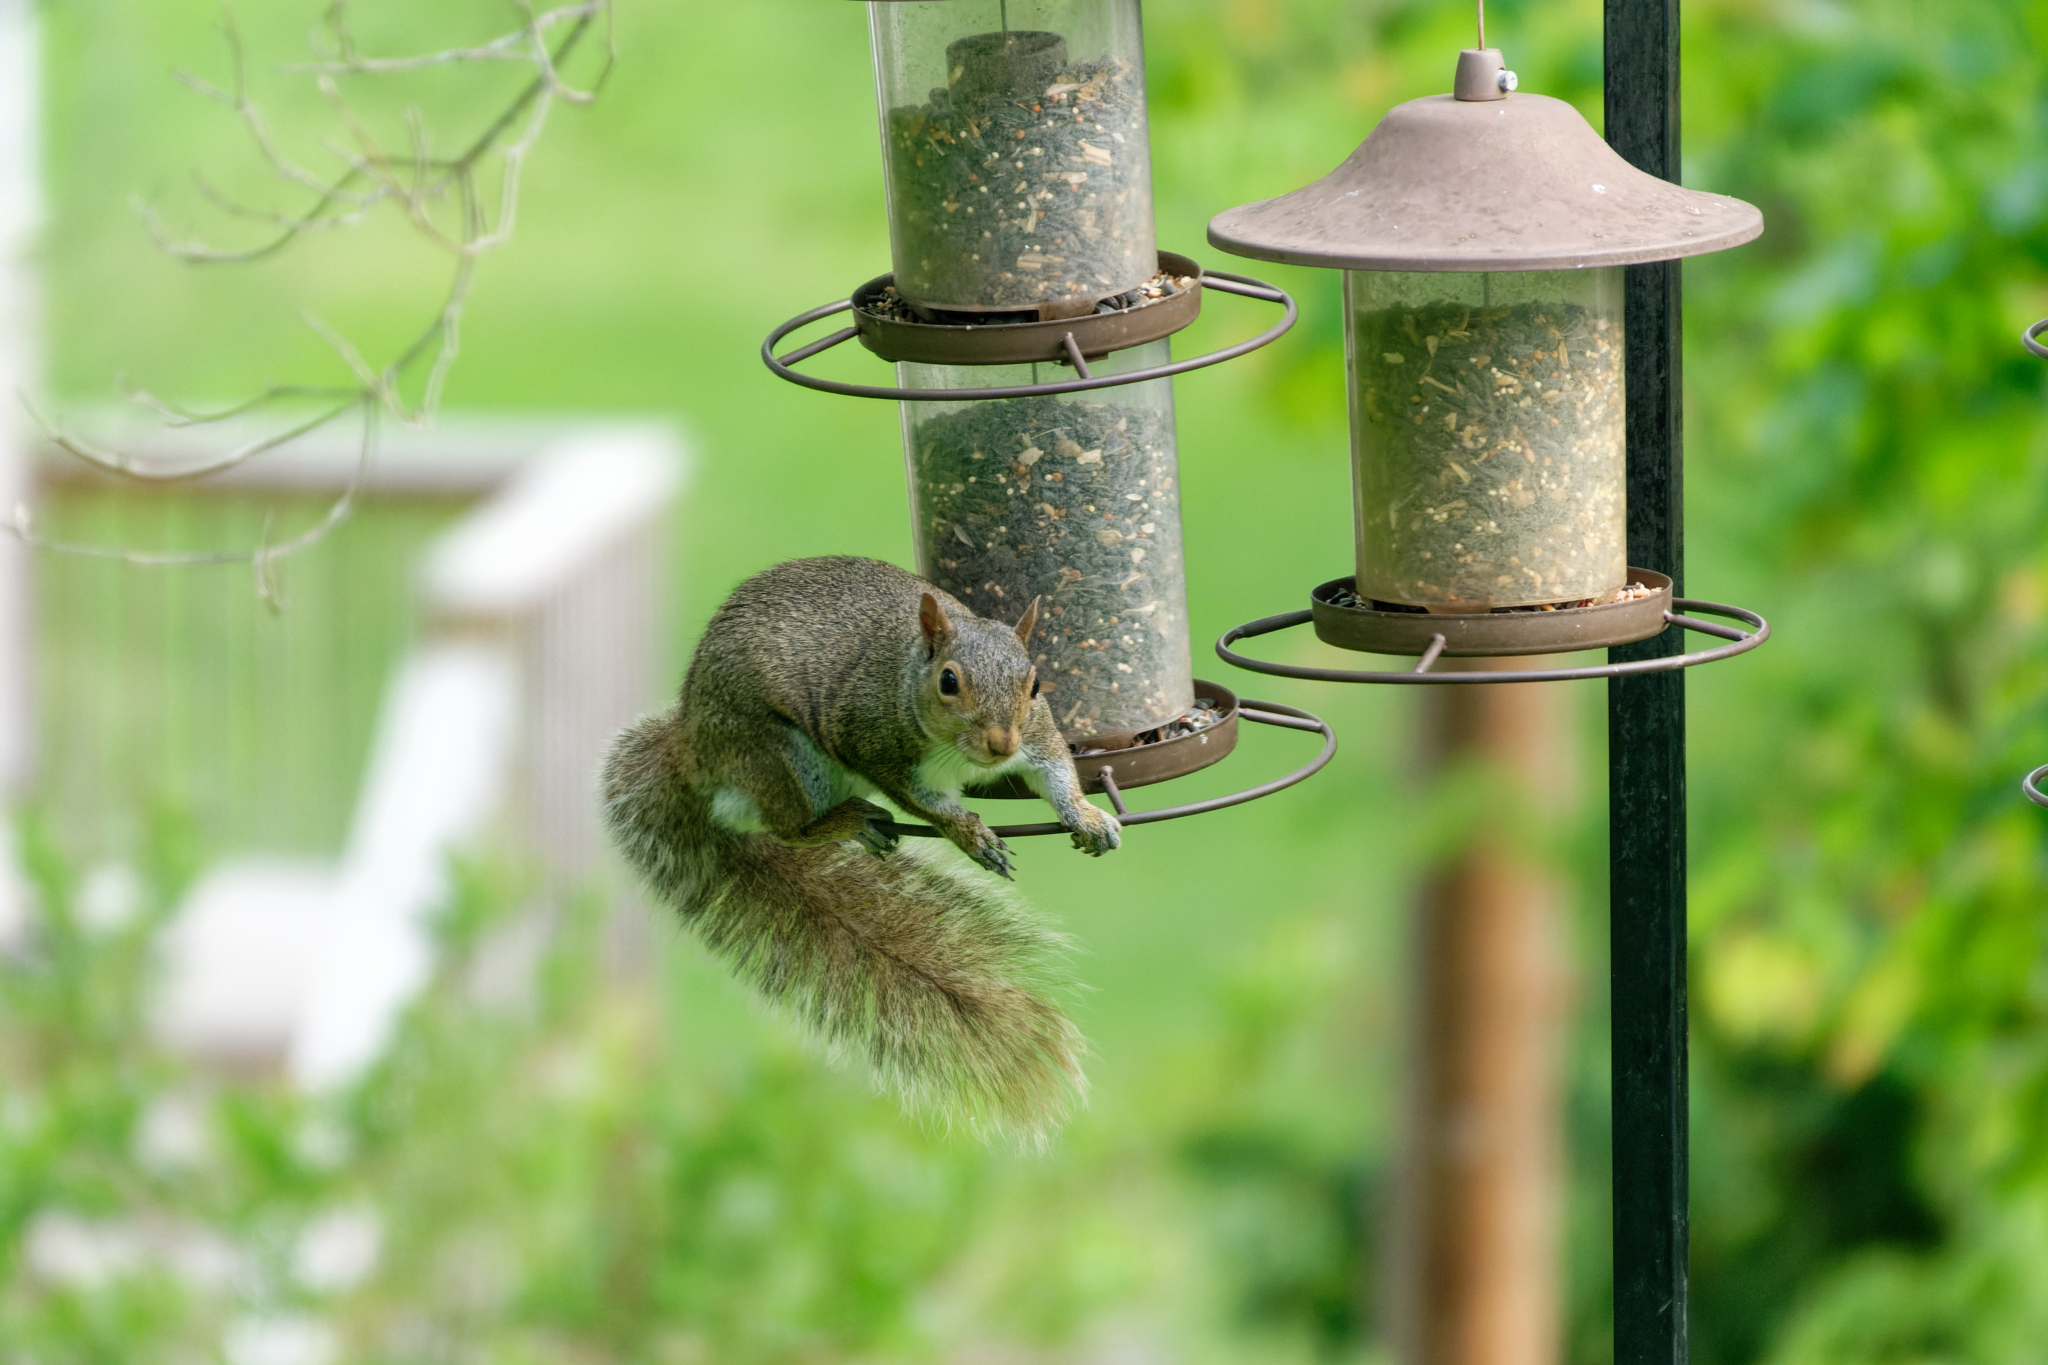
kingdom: Animalia
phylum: Chordata
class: Mammalia
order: Rodentia
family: Sciuridae
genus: Sciurus
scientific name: Sciurus carolinensis
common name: Eastern gray squirrel
